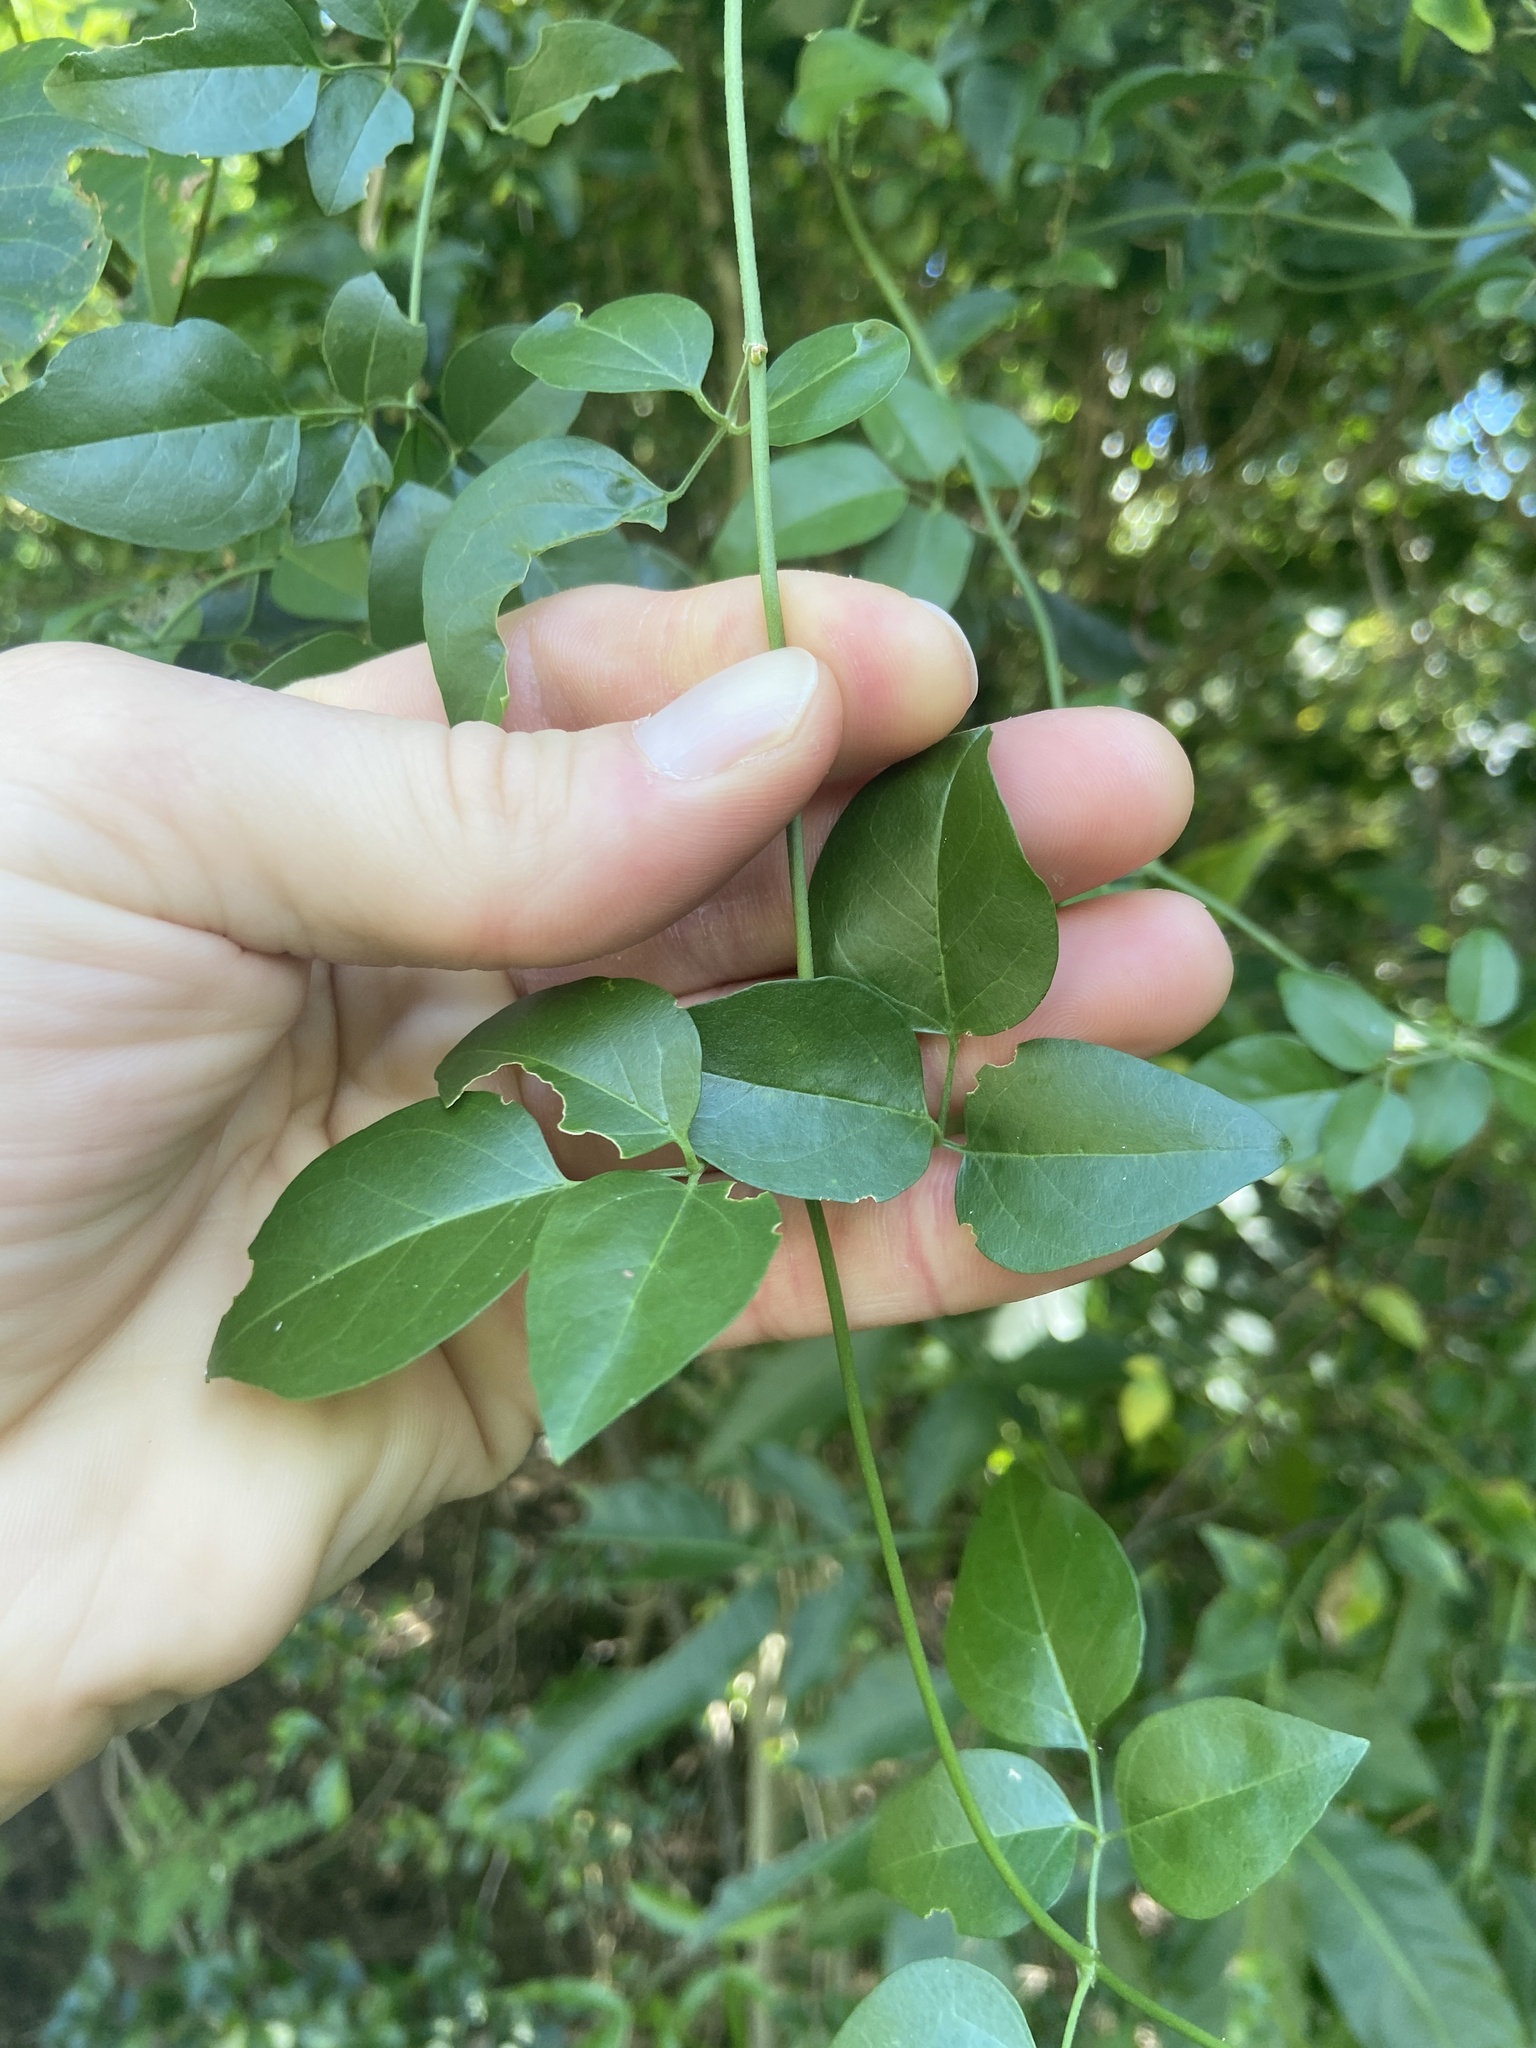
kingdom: Plantae
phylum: Tracheophyta
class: Magnoliopsida
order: Lamiales
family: Oleaceae
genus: Jasminum
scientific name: Jasminum fluminense
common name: Brazilian jasmine
